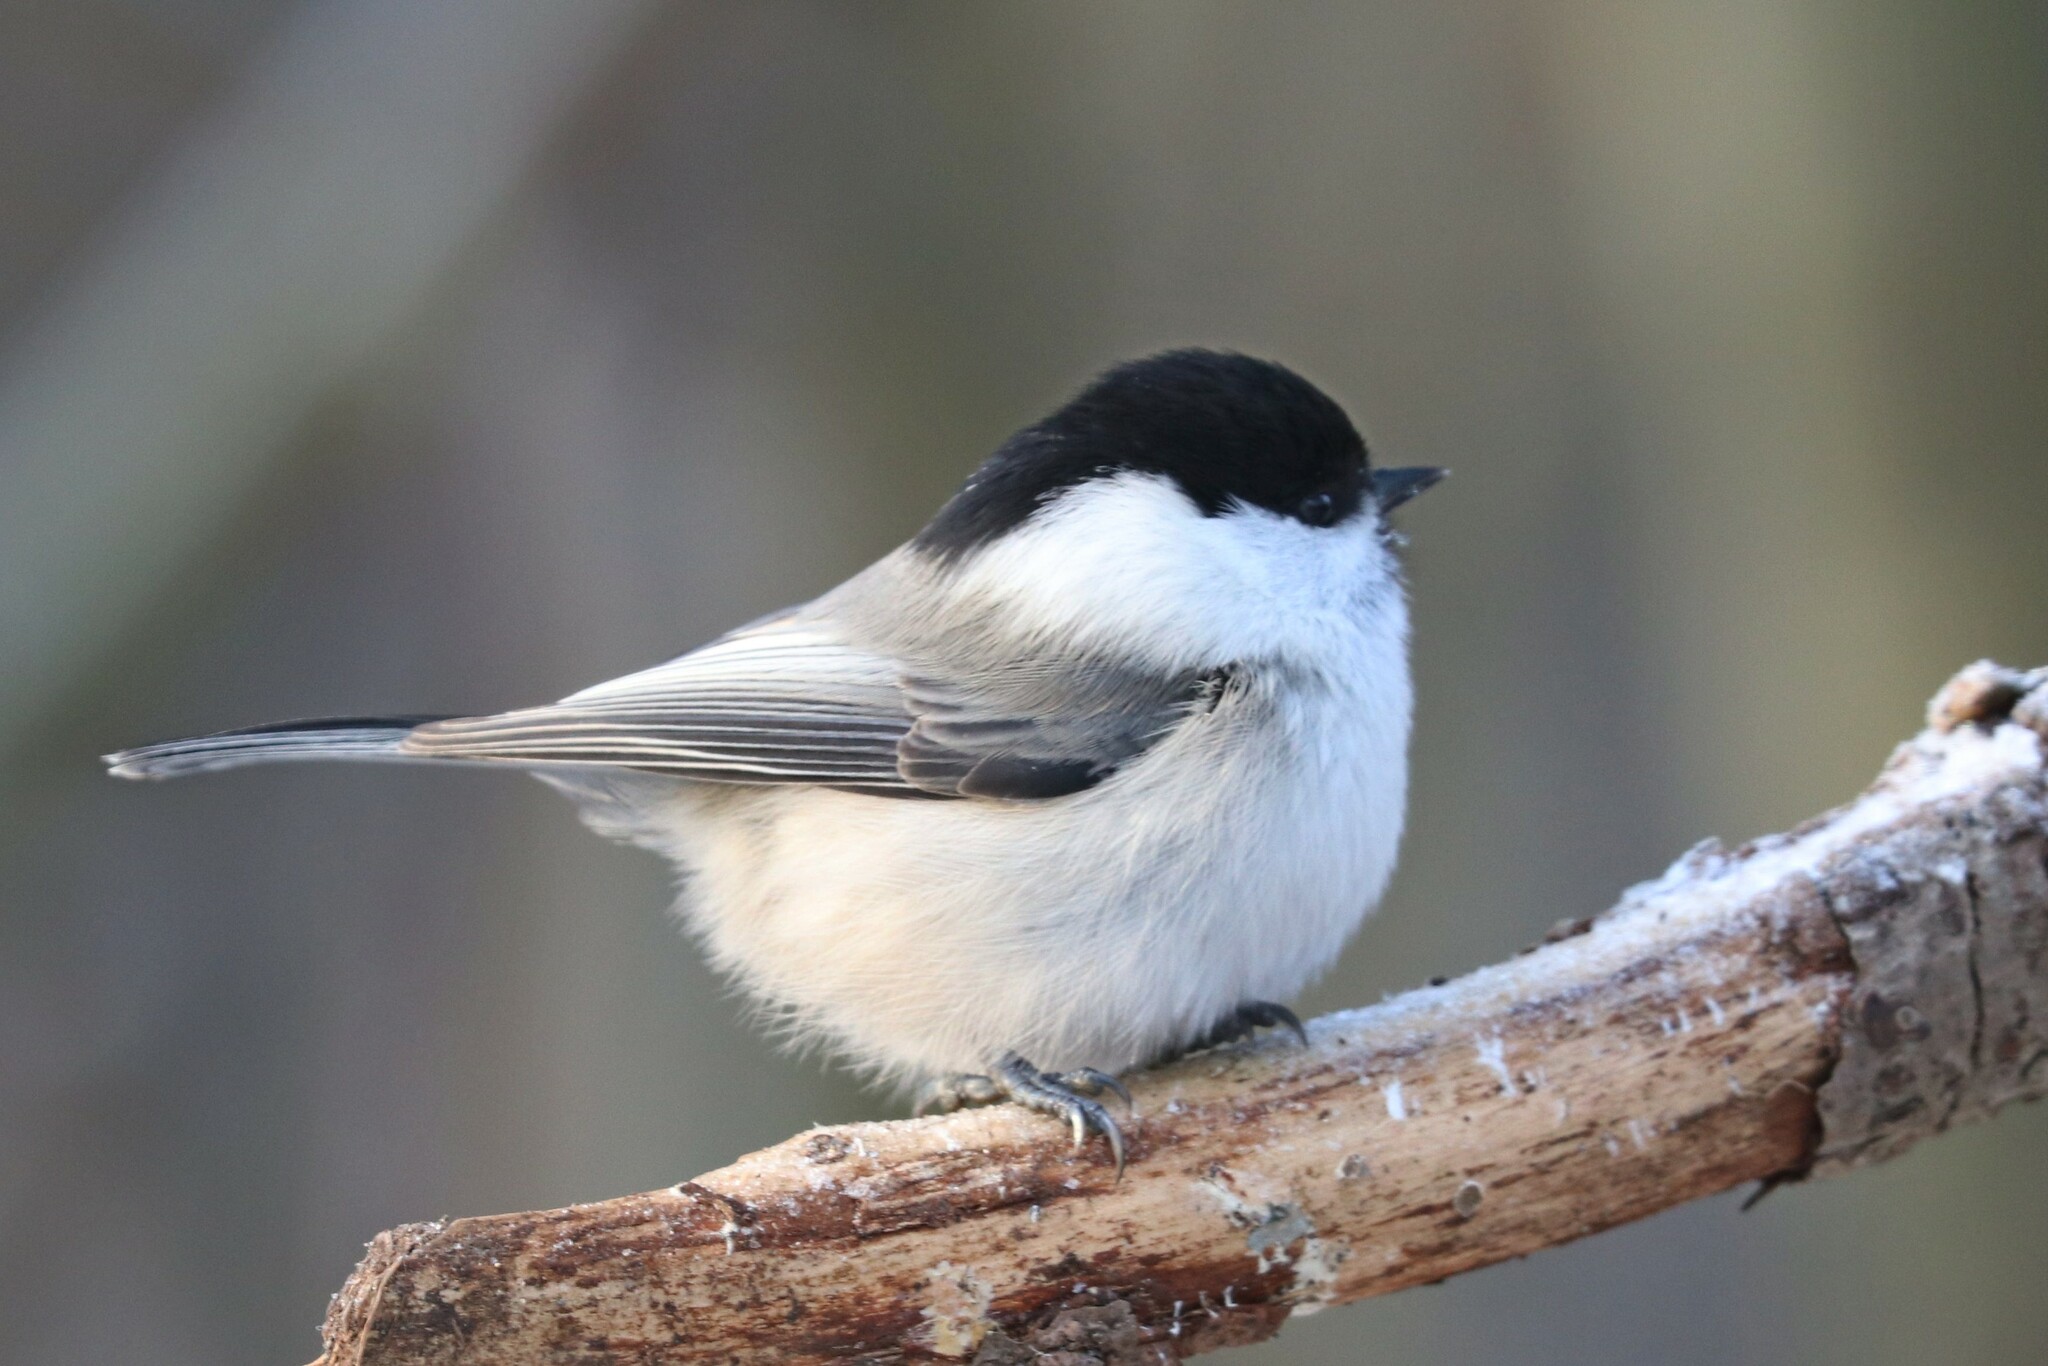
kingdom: Animalia
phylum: Chordata
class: Aves
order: Passeriformes
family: Paridae
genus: Poecile
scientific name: Poecile montanus
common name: Willow tit
